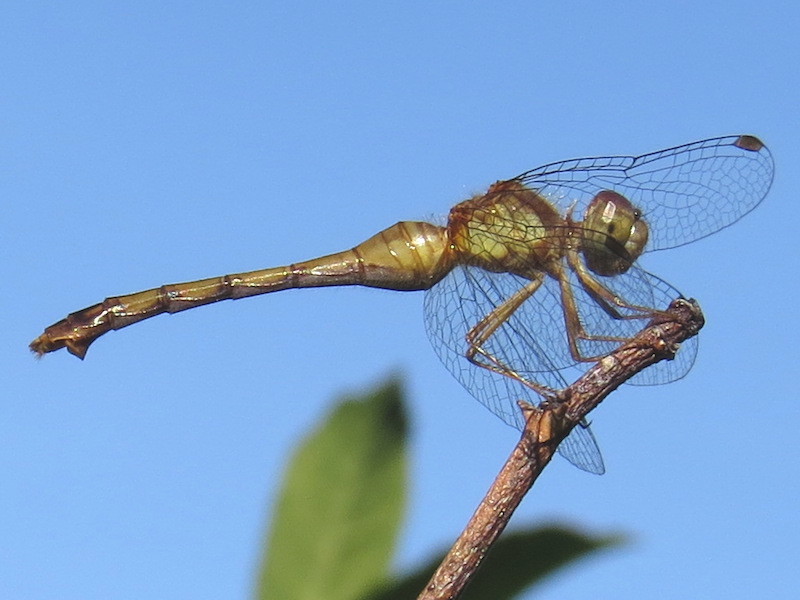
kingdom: Animalia
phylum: Arthropoda
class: Insecta
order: Odonata
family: Libellulidae
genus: Sympetrum
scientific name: Sympetrum vicinum
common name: Autumn meadowhawk
